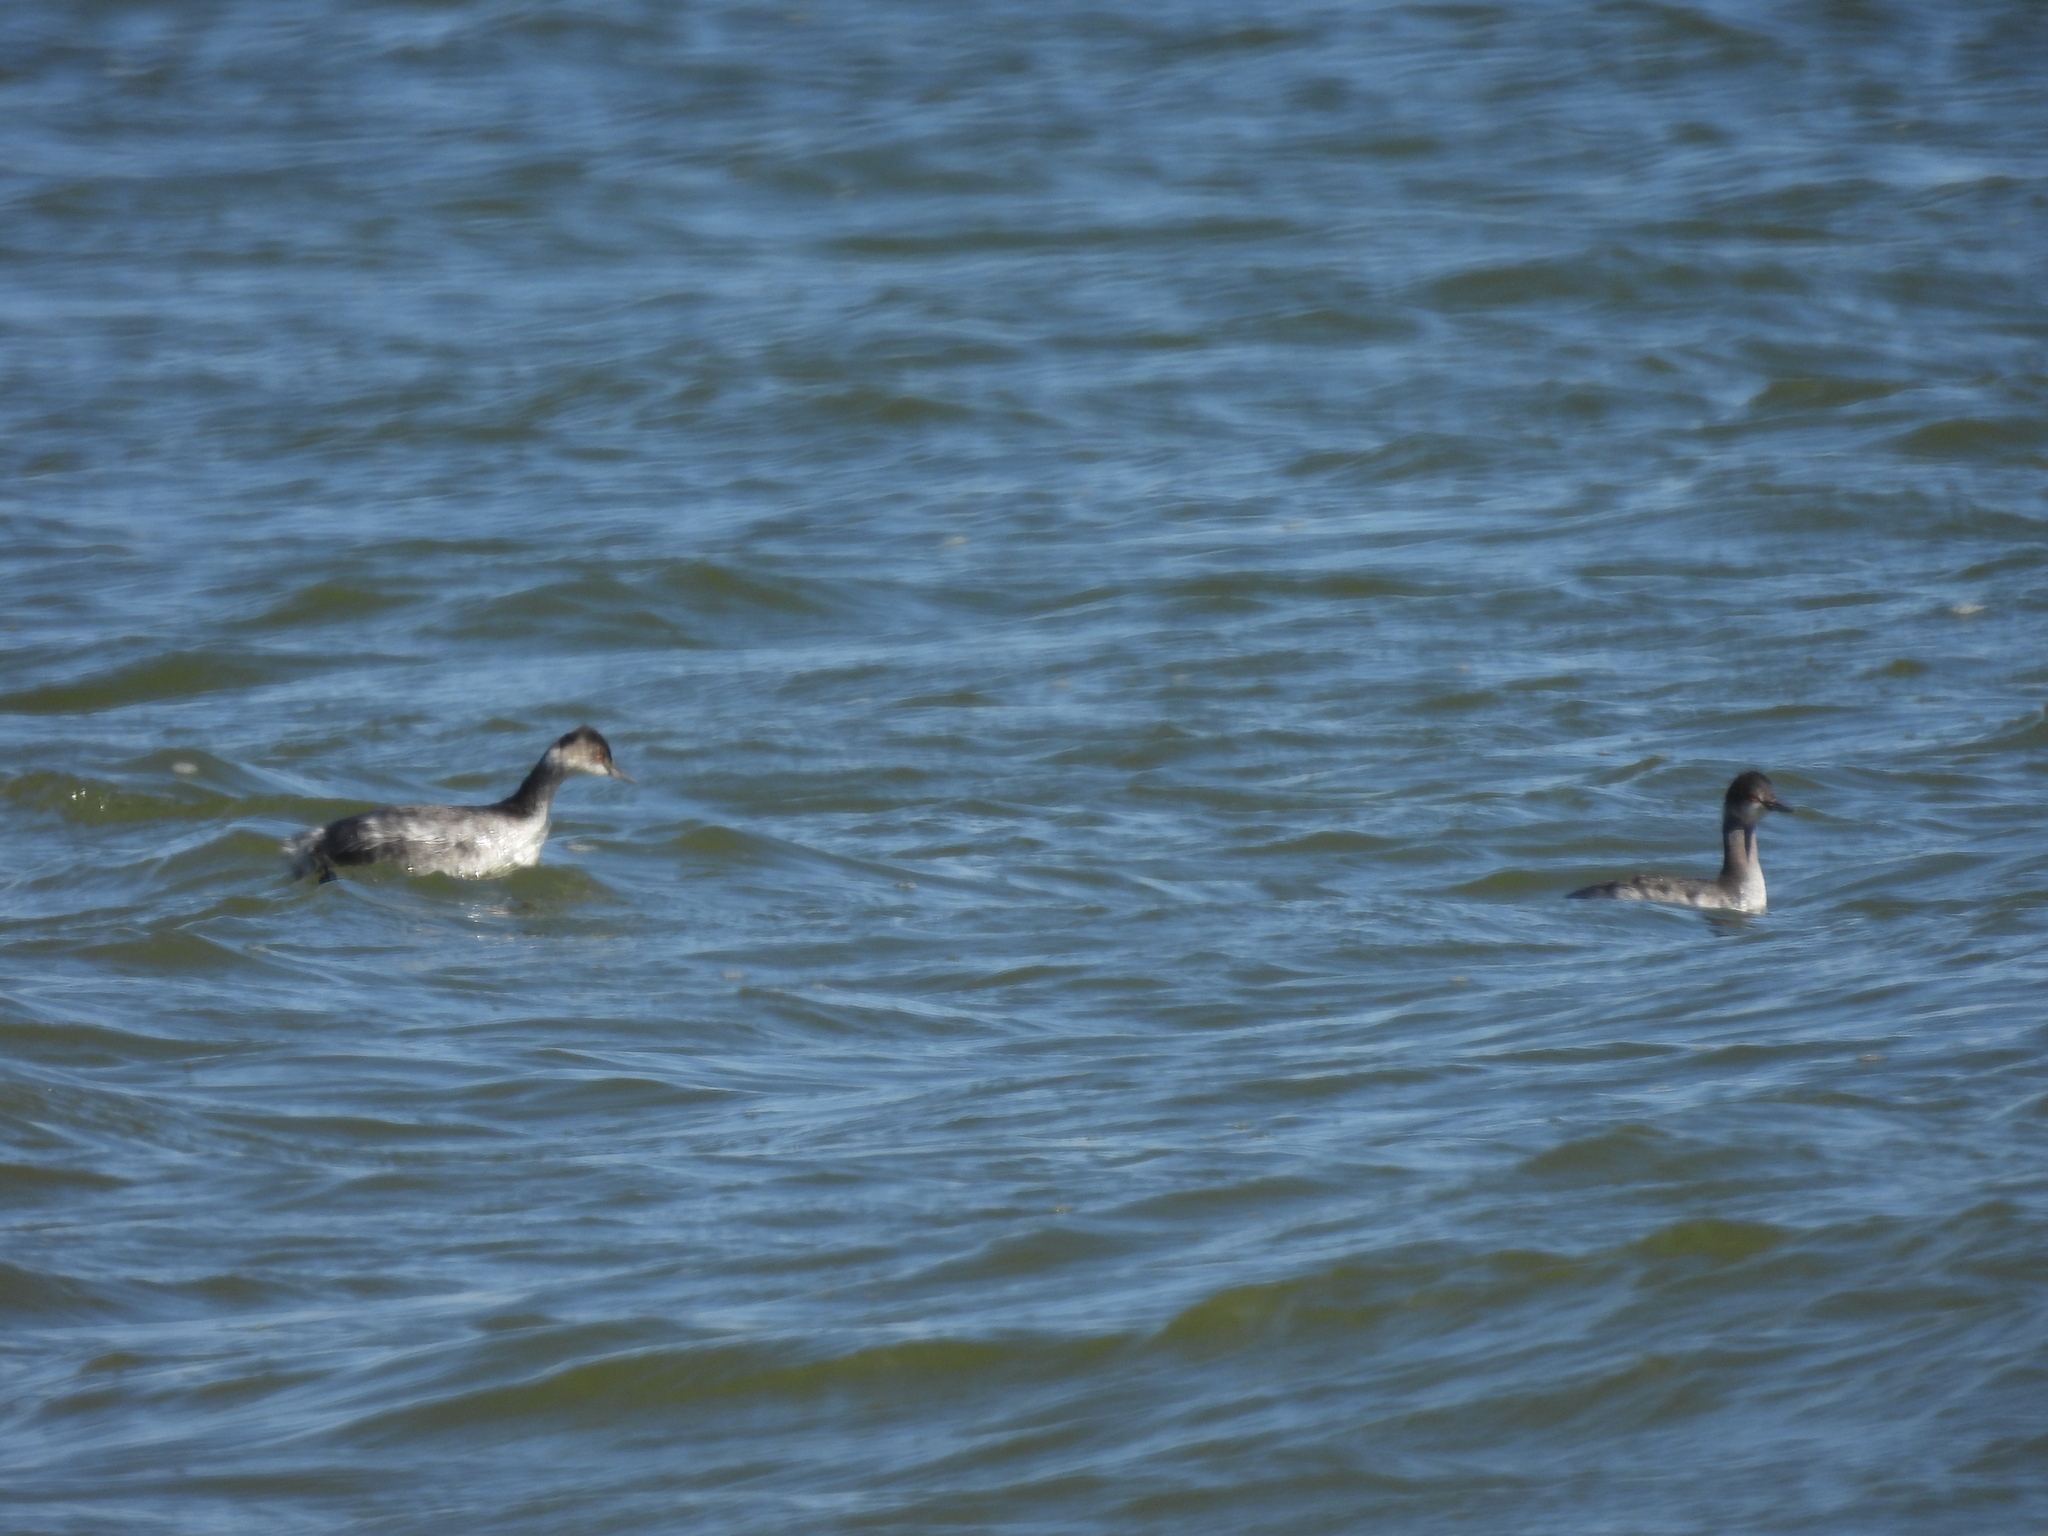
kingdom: Animalia
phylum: Chordata
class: Aves
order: Podicipediformes
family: Podicipedidae
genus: Podiceps
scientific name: Podiceps nigricollis
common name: Black-necked grebe
